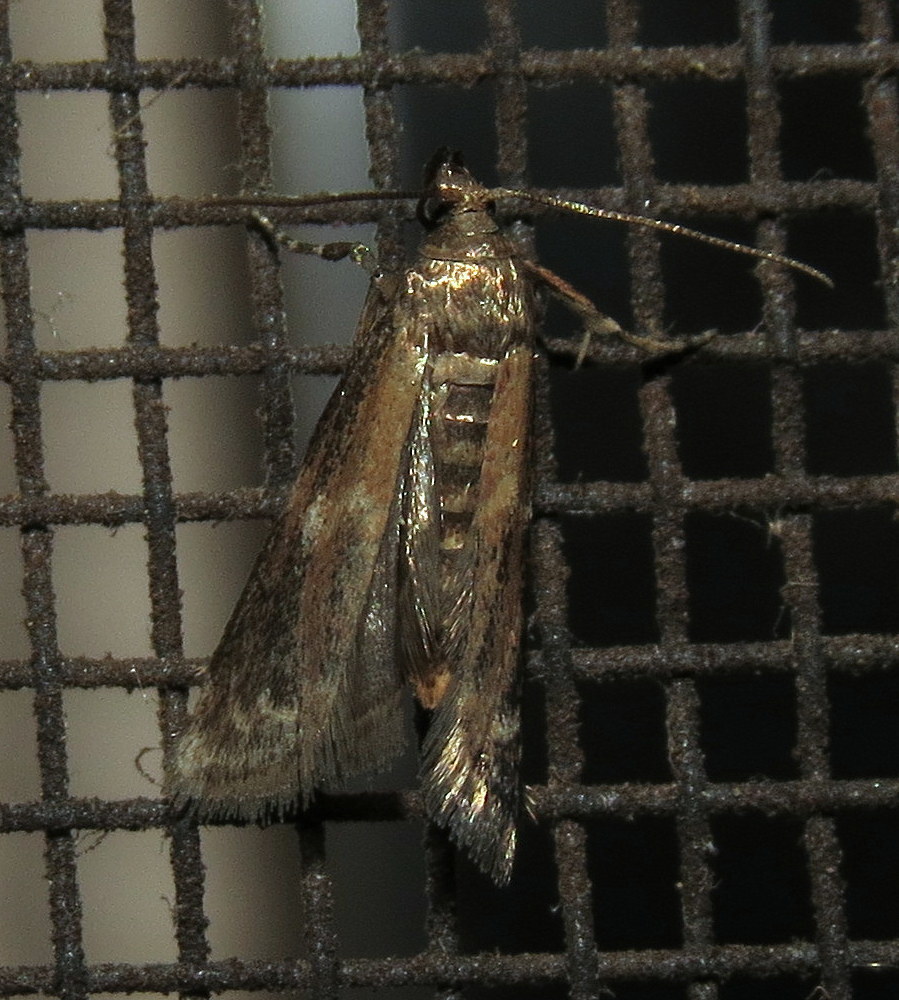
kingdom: Animalia
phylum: Arthropoda
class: Insecta
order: Lepidoptera
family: Pyralidae
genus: Vitula
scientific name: Vitula broweri
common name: Brower's vitula moth
